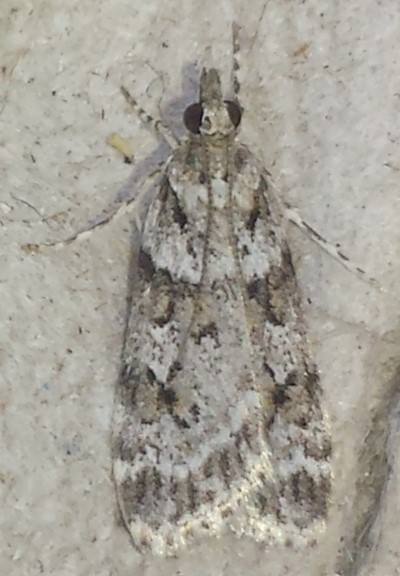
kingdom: Animalia
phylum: Arthropoda
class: Insecta
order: Lepidoptera
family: Crambidae
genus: Scoparia
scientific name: Scoparia biplagialis
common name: Double-striped scoparia moth
